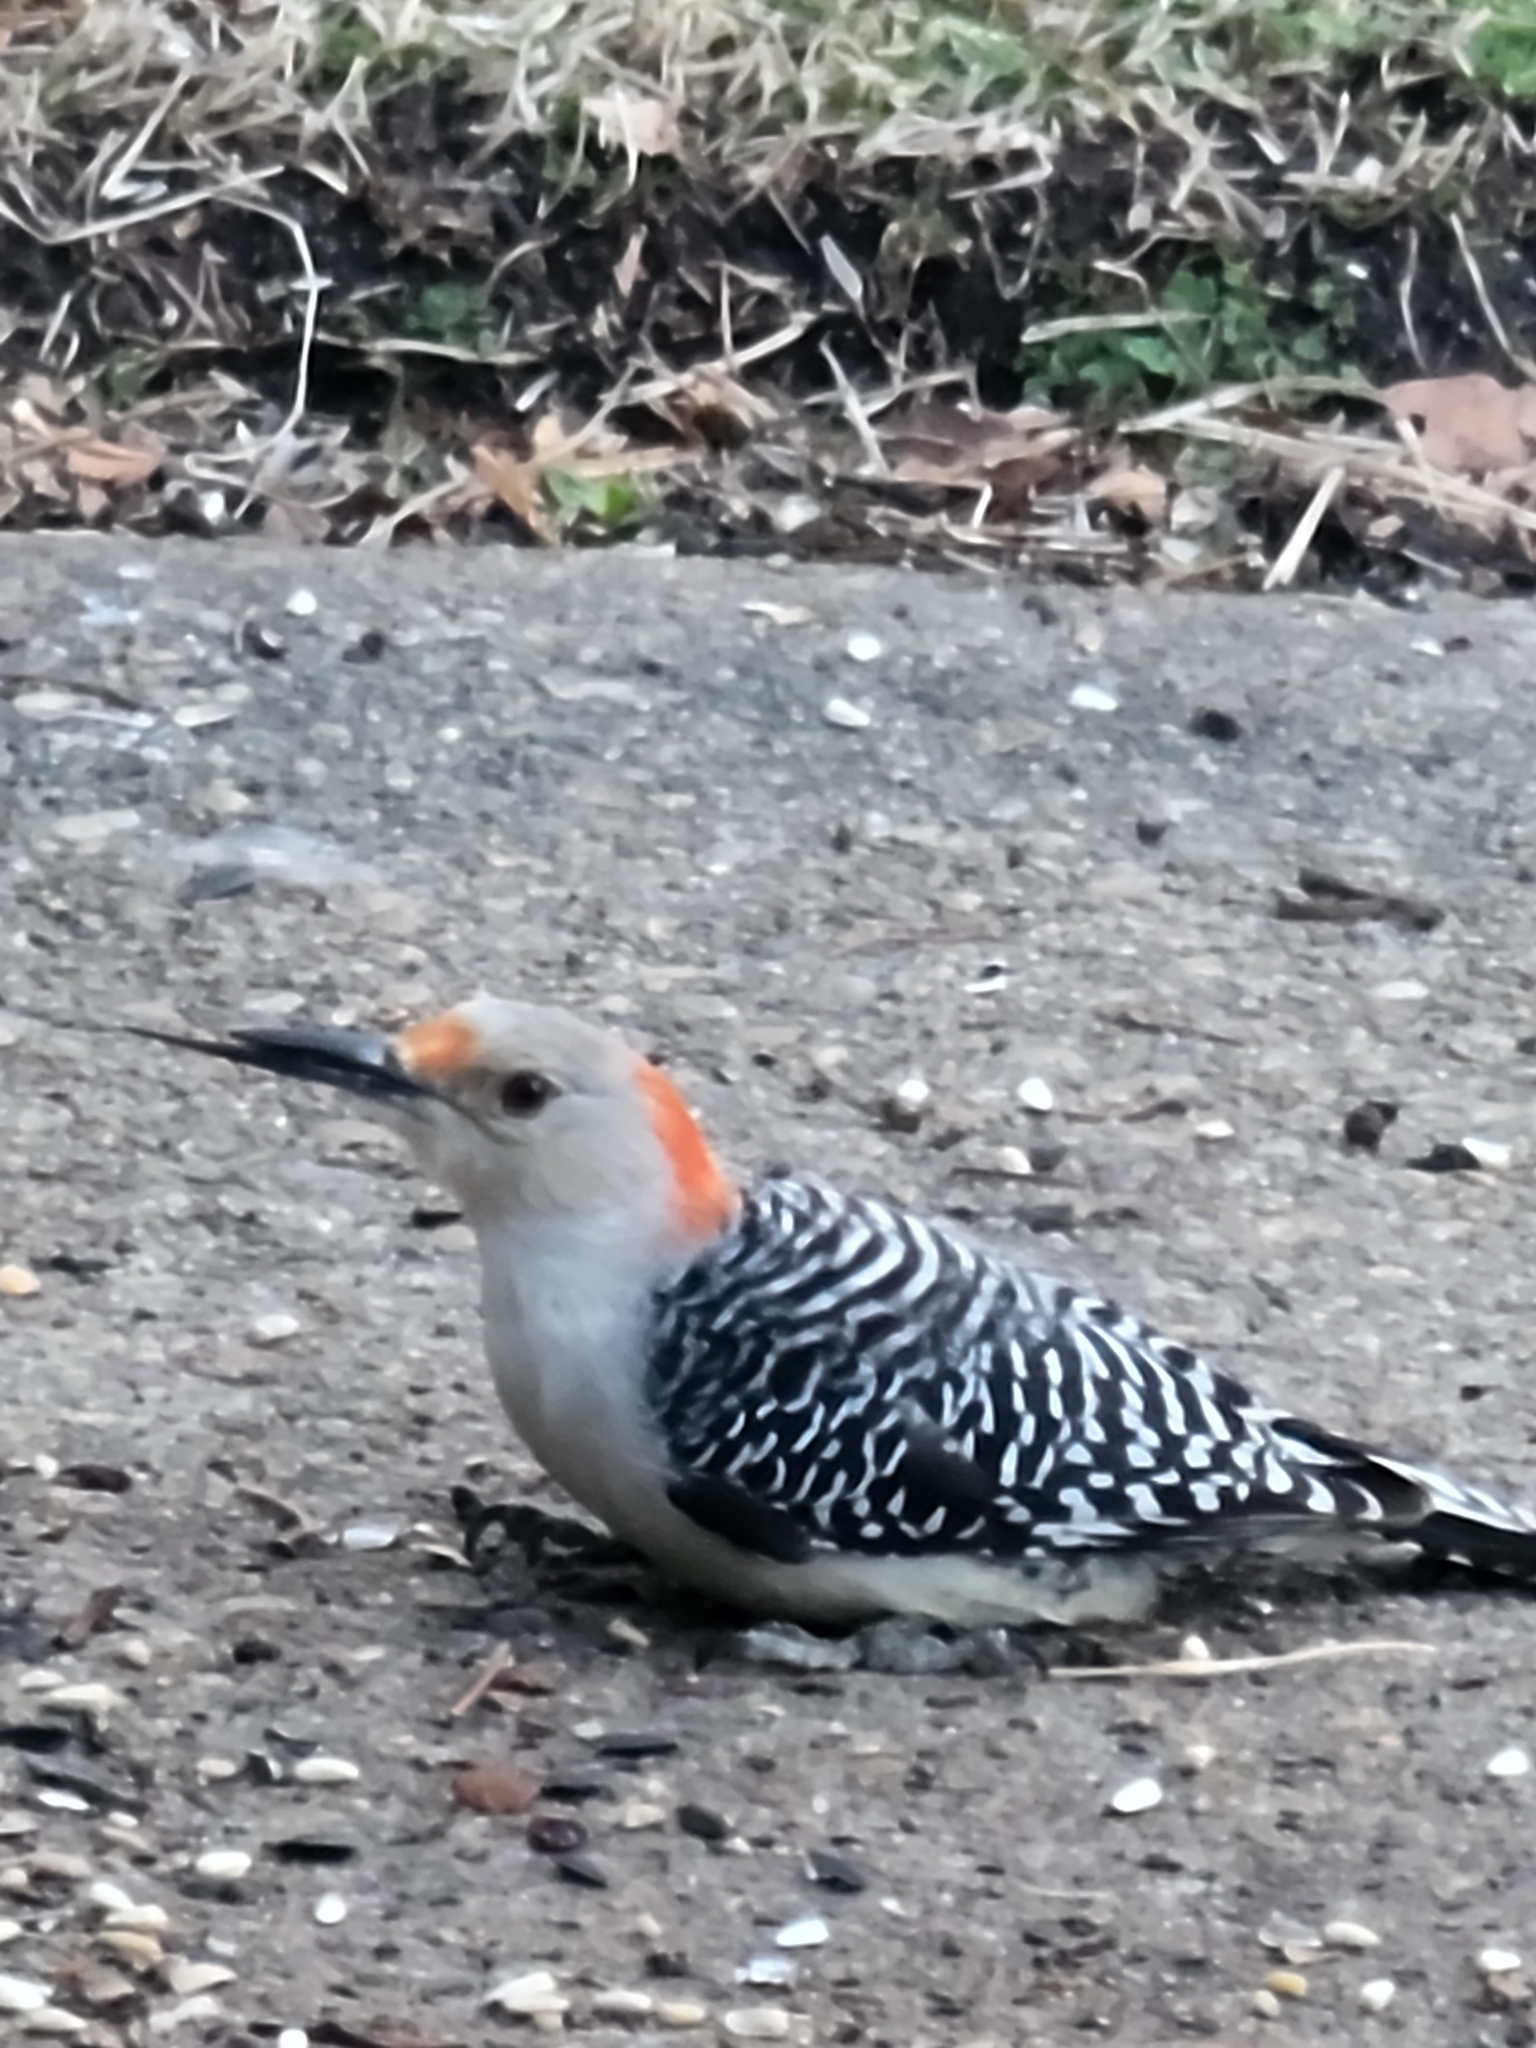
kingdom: Animalia
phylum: Chordata
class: Aves
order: Piciformes
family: Picidae
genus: Melanerpes
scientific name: Melanerpes carolinus
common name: Red-bellied woodpecker
